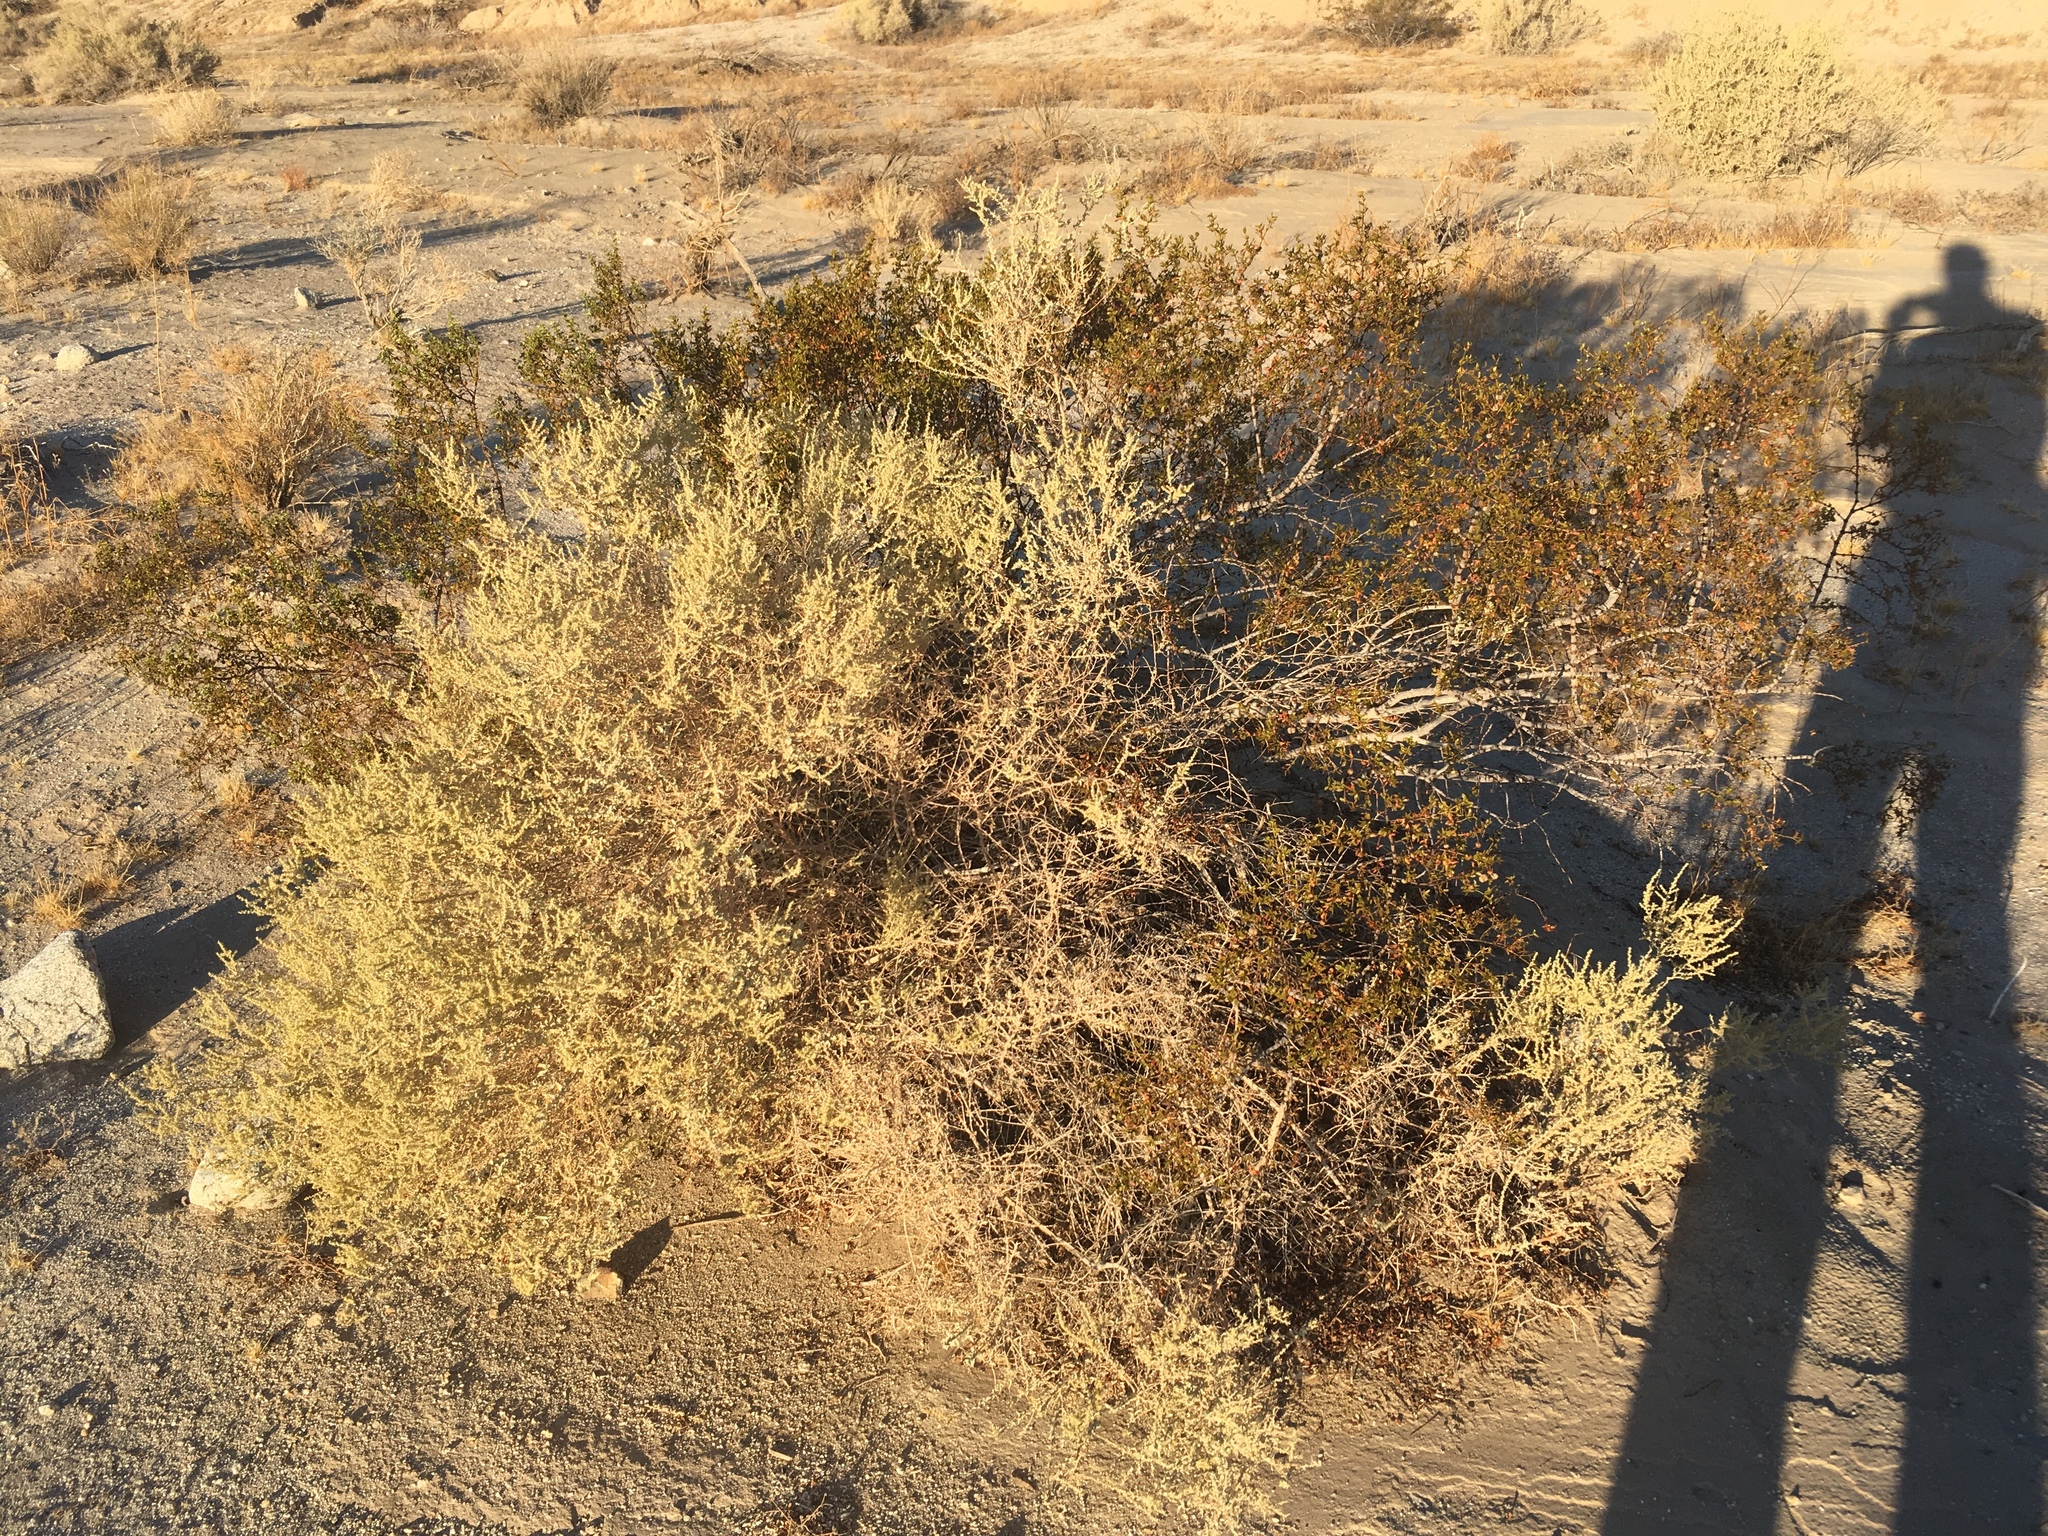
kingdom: Plantae
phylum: Tracheophyta
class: Magnoliopsida
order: Caryophyllales
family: Amaranthaceae
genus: Atriplex
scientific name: Atriplex polycarpa
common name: Desert saltbush
